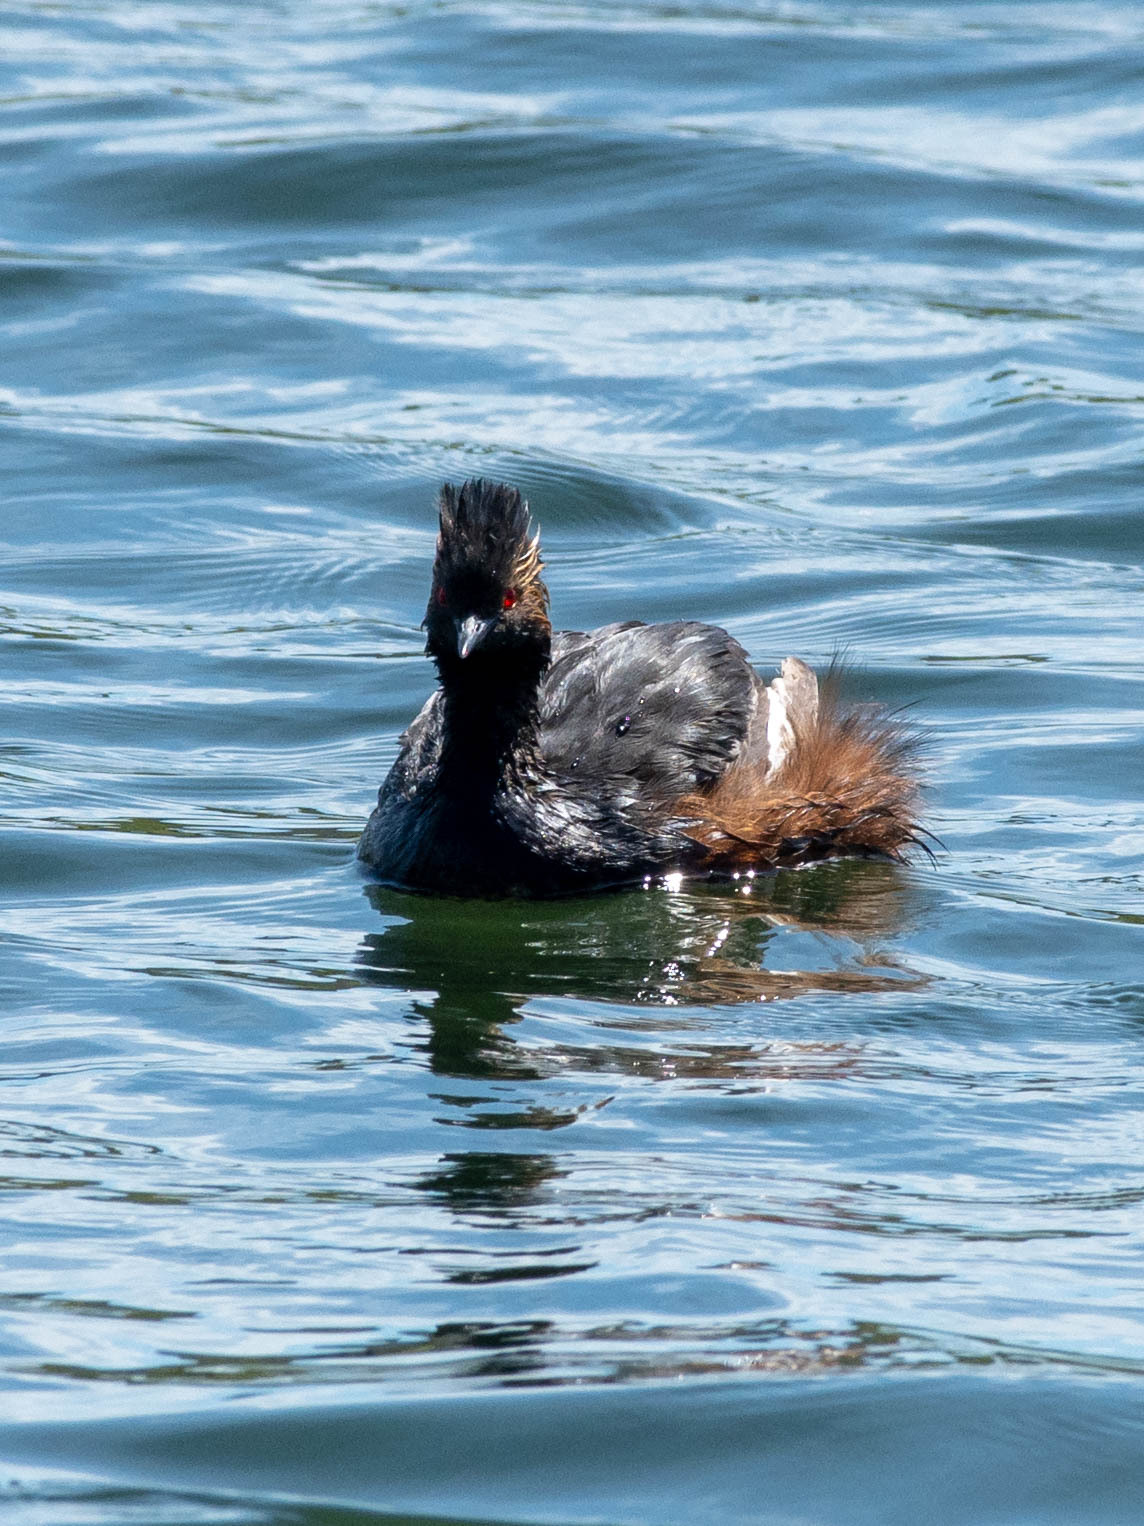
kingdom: Animalia
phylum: Chordata
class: Aves
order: Podicipediformes
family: Podicipedidae
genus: Podiceps
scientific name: Podiceps nigricollis
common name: Black-necked grebe
